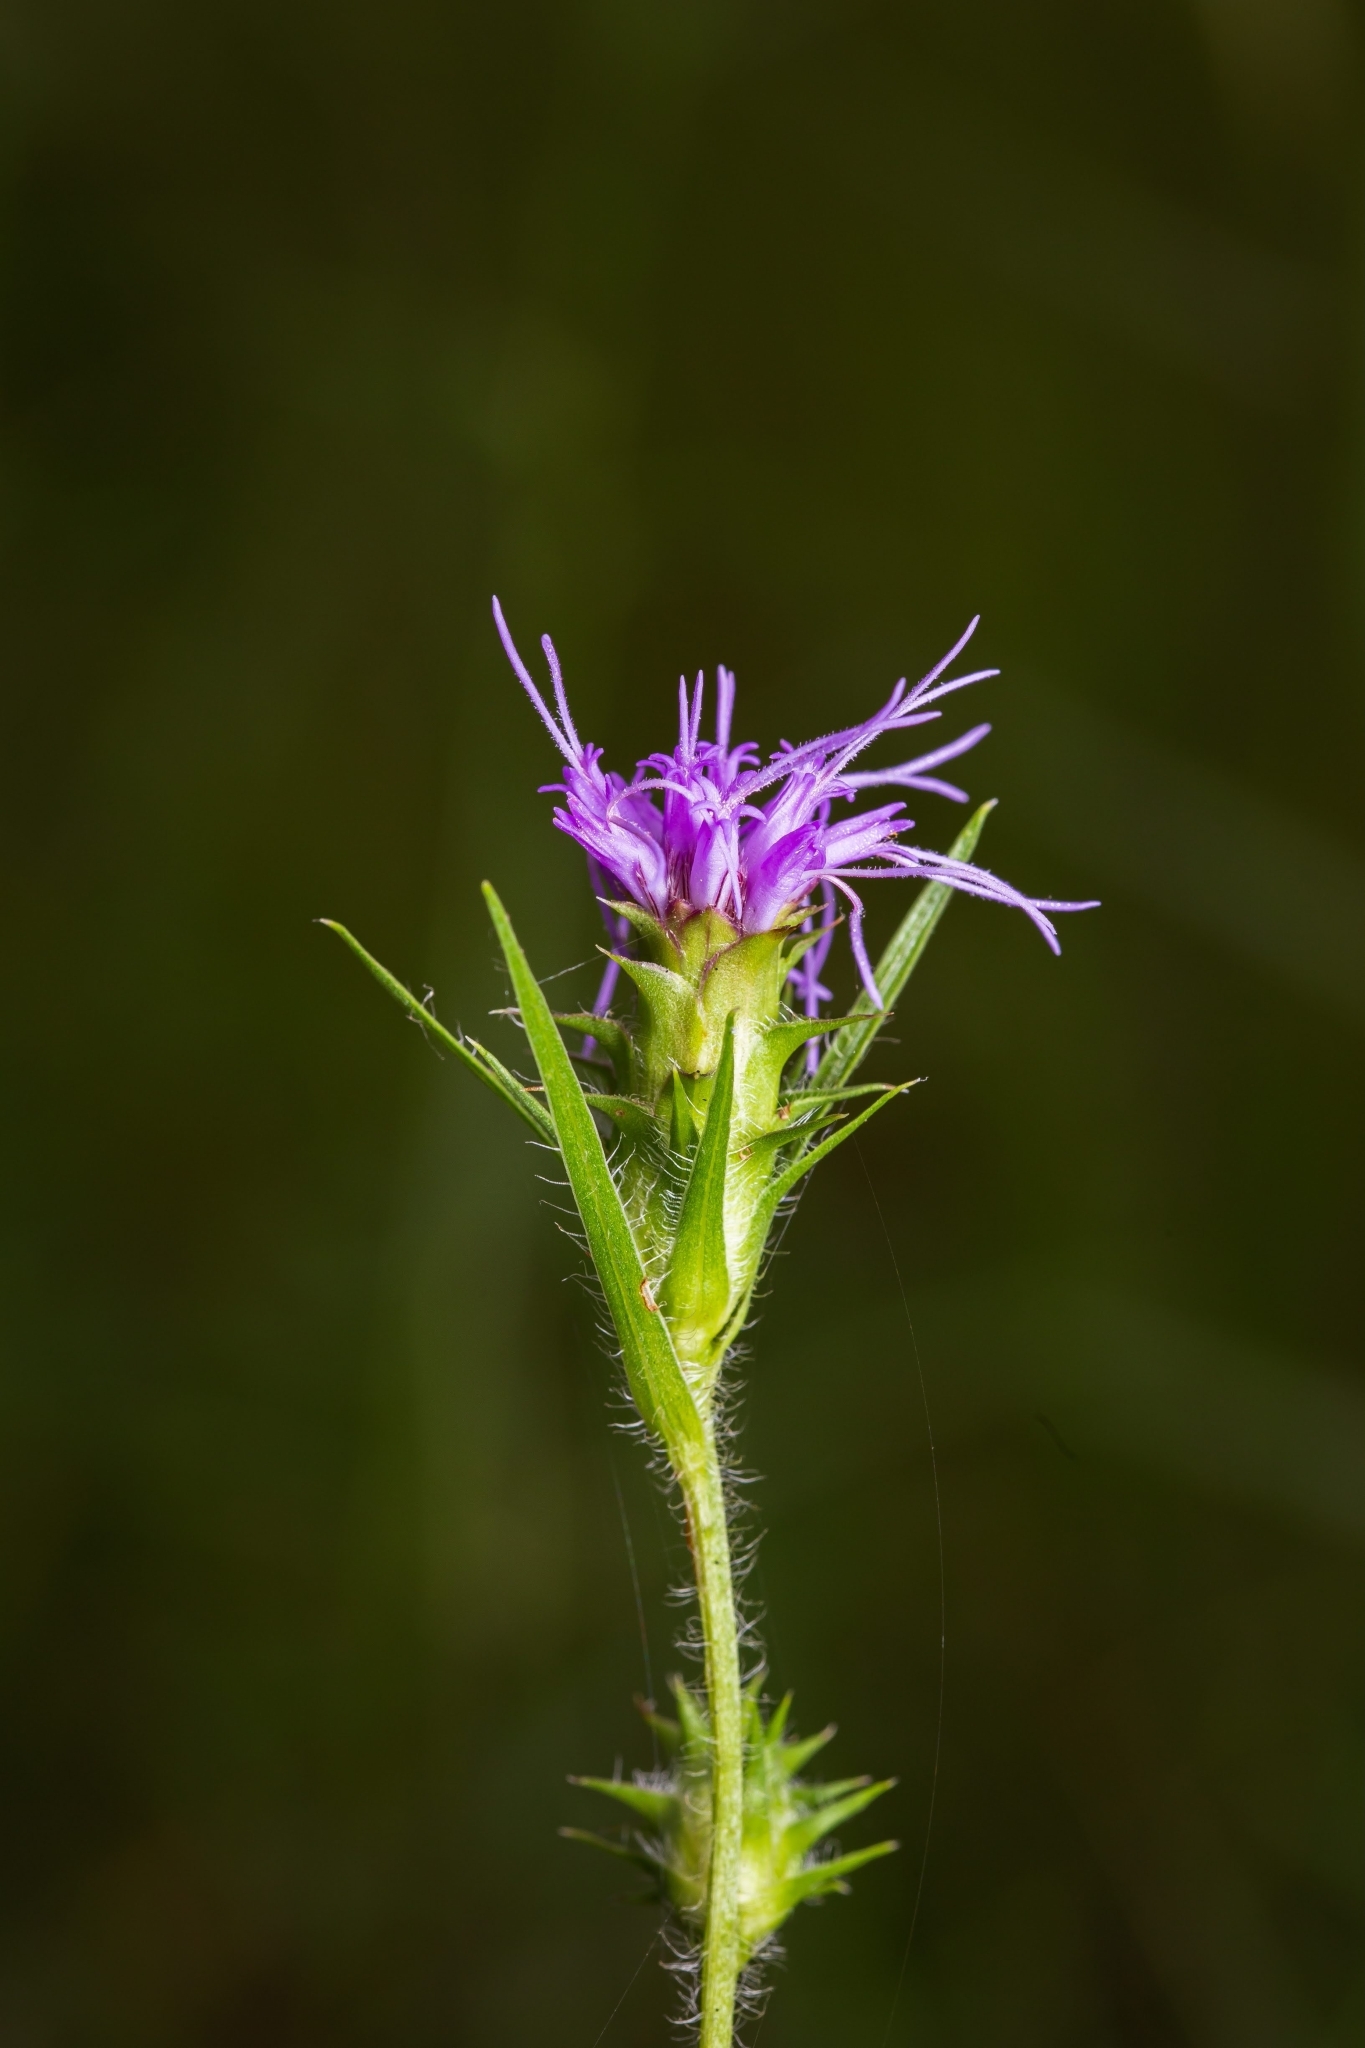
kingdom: Plantae
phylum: Tracheophyta
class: Magnoliopsida
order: Asterales
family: Asteraceae
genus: Liatris
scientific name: Liatris hirsuta
